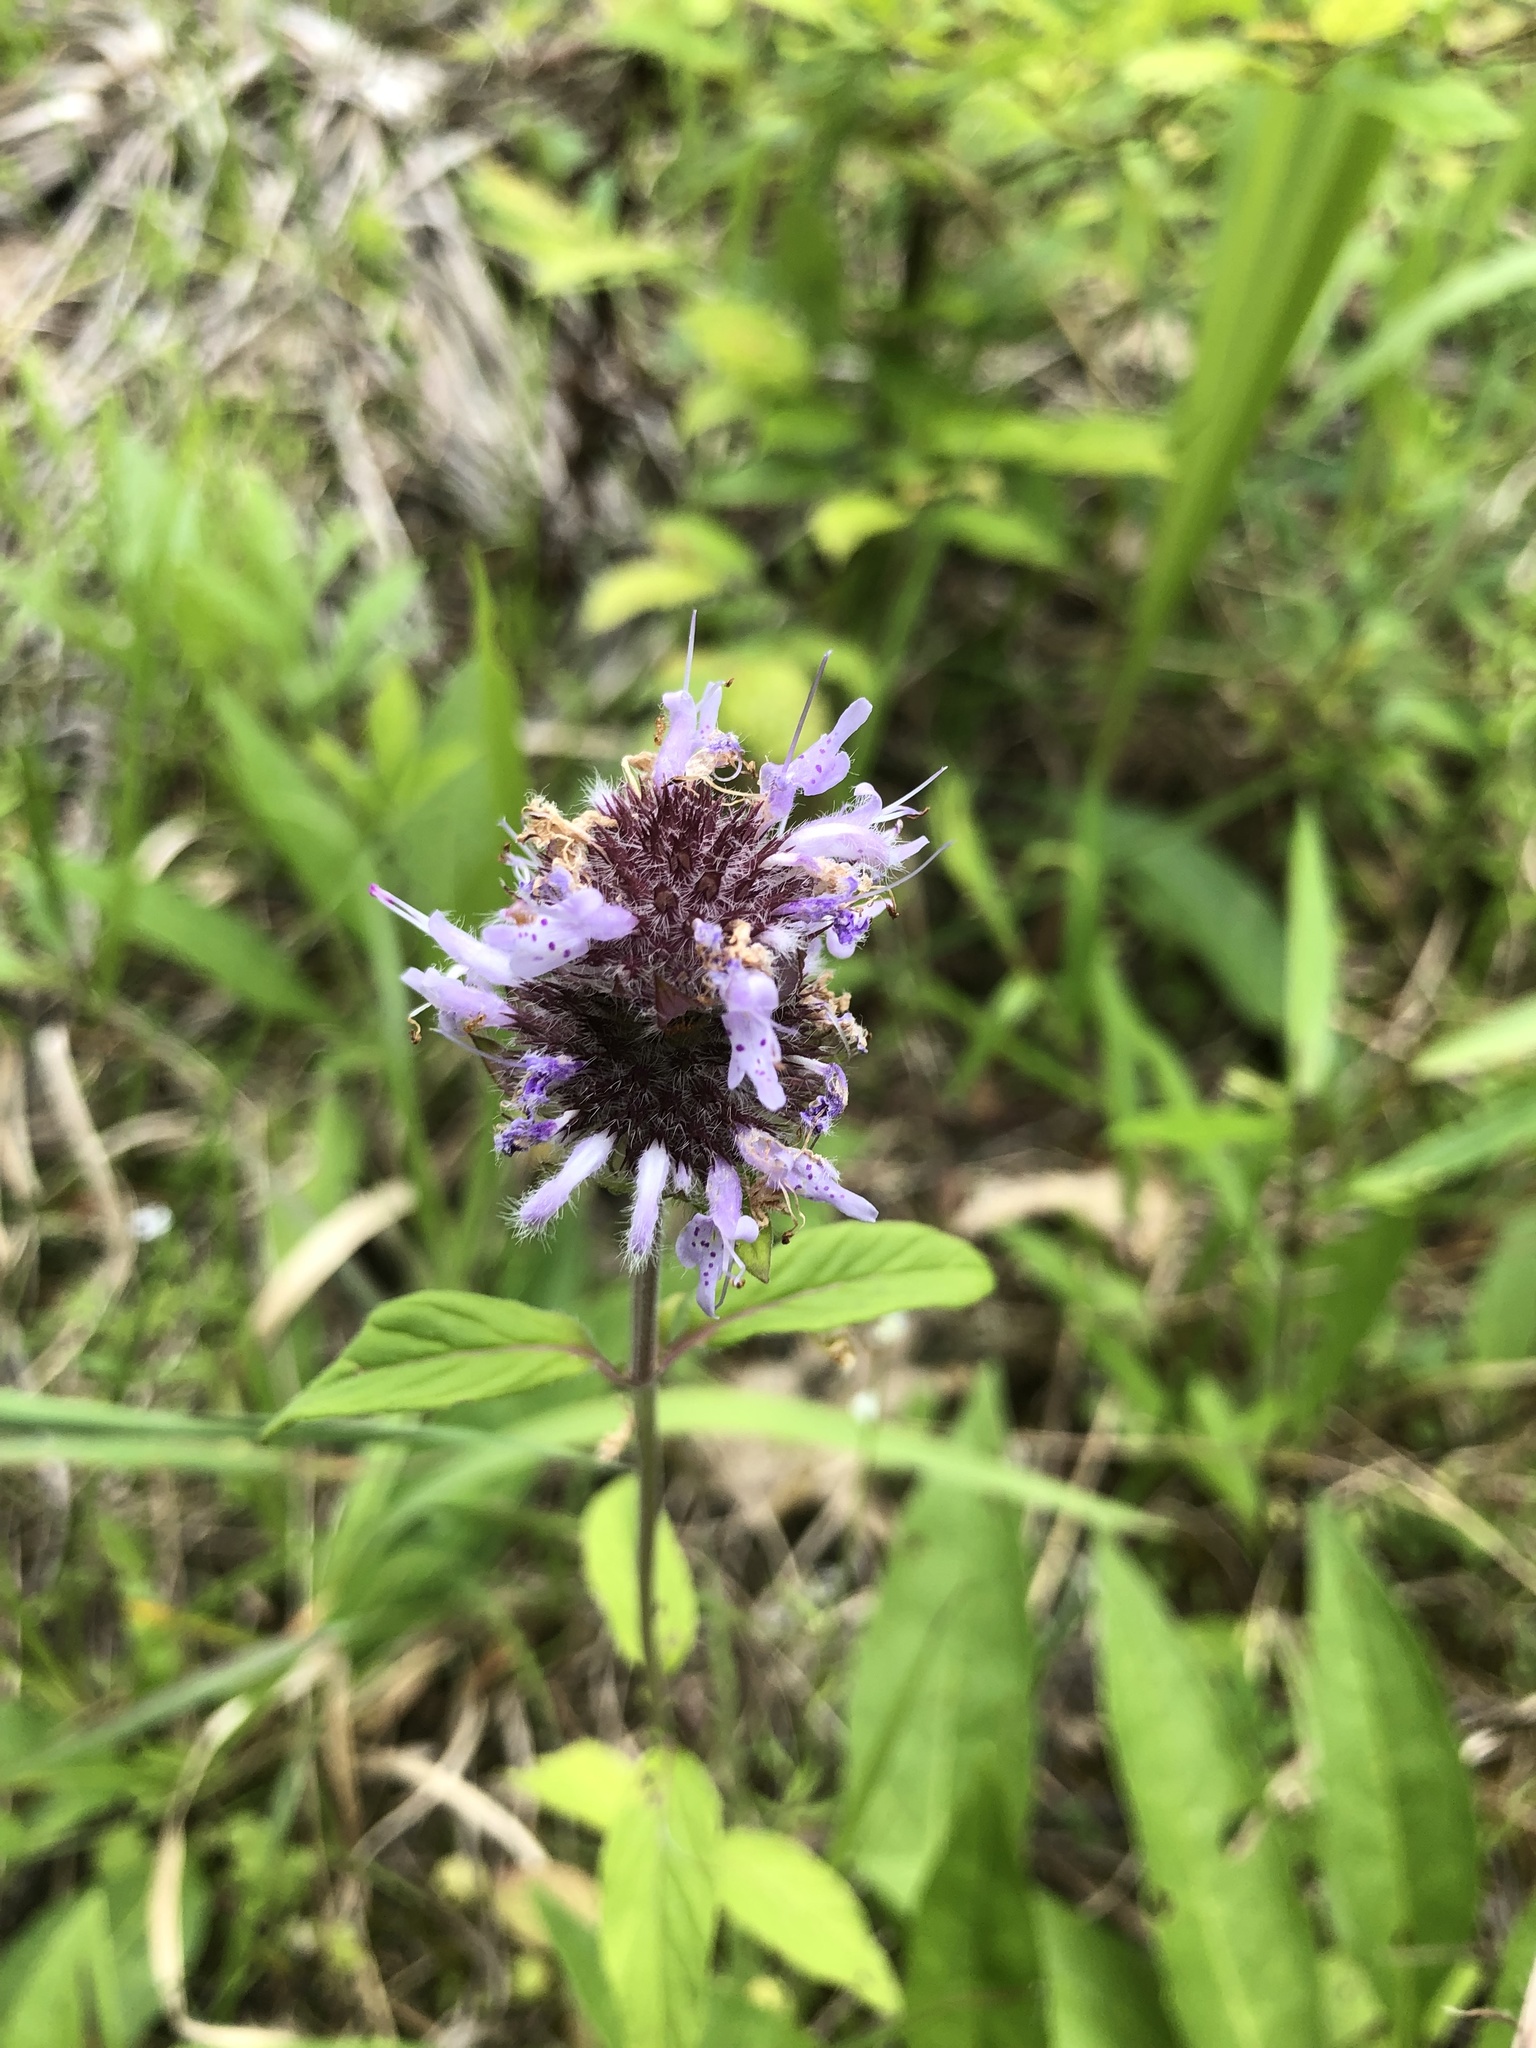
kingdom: Plantae
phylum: Tracheophyta
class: Magnoliopsida
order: Lamiales
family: Lamiaceae
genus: Blephilia
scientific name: Blephilia ciliata
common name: Downy blephilia
